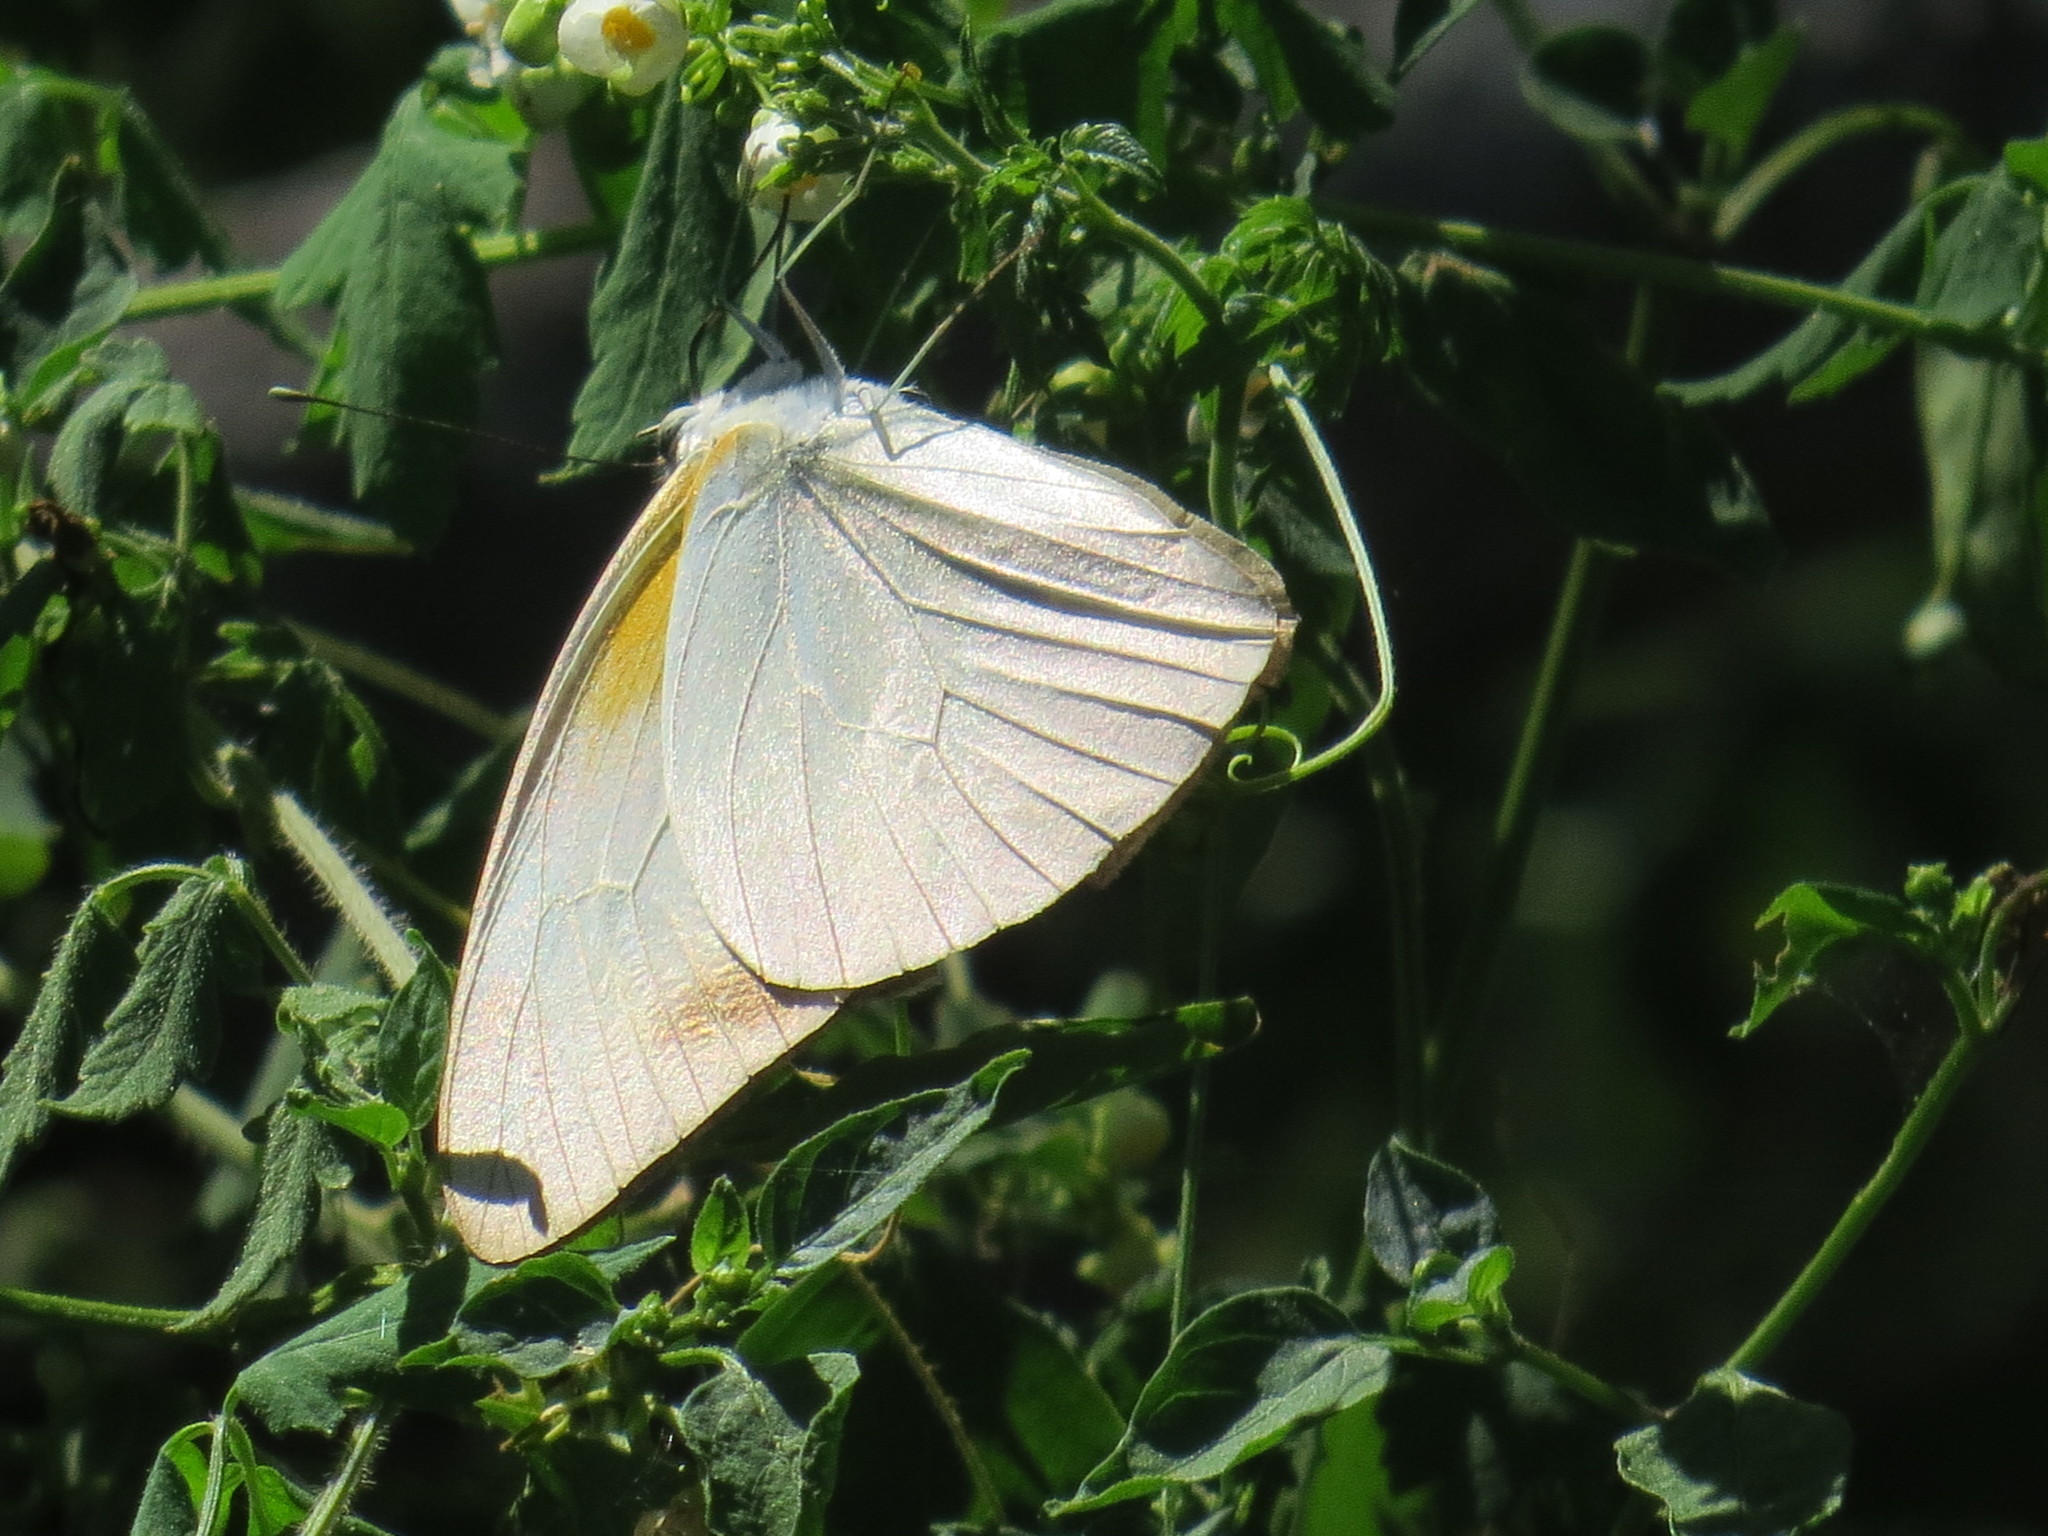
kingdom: Animalia
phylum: Arthropoda
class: Insecta
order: Lepidoptera
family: Pieridae
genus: Glutophrissa
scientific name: Glutophrissa drusilla
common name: Florida white
